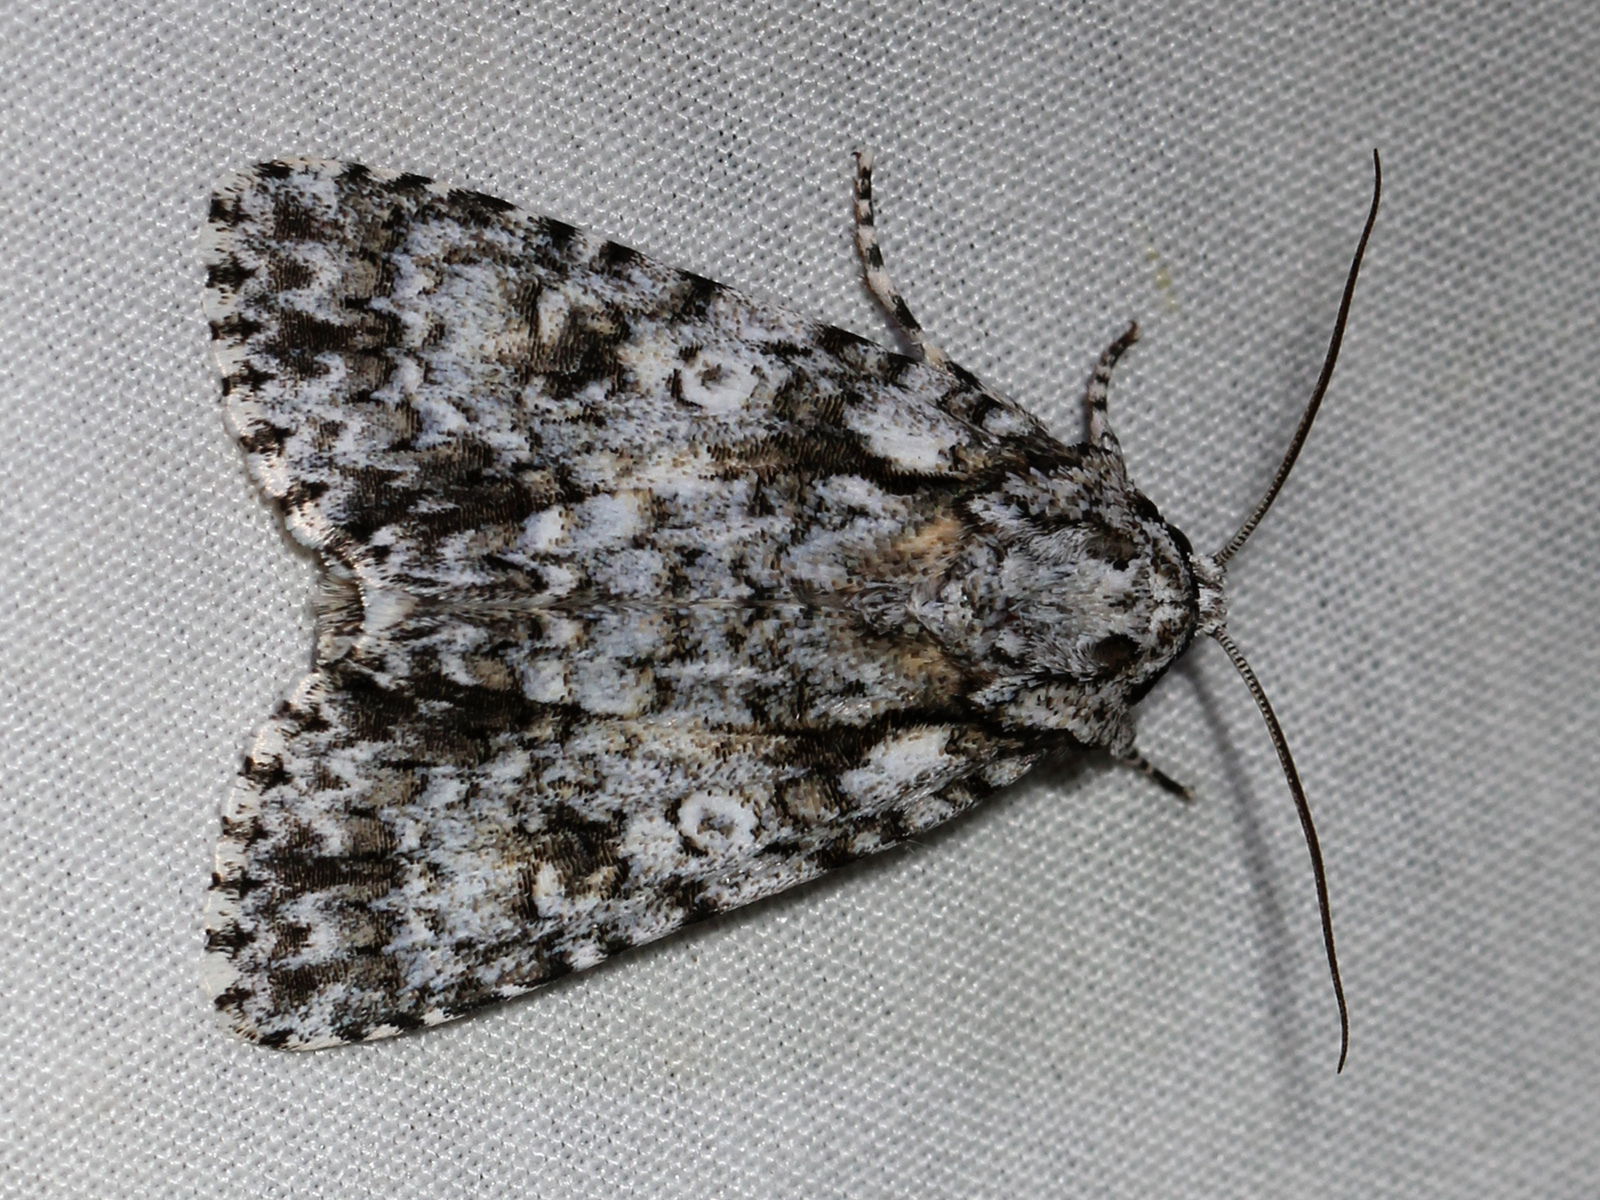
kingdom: Animalia
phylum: Arthropoda
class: Insecta
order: Lepidoptera
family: Noctuidae
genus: Acronicta
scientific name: Acronicta marmorata
